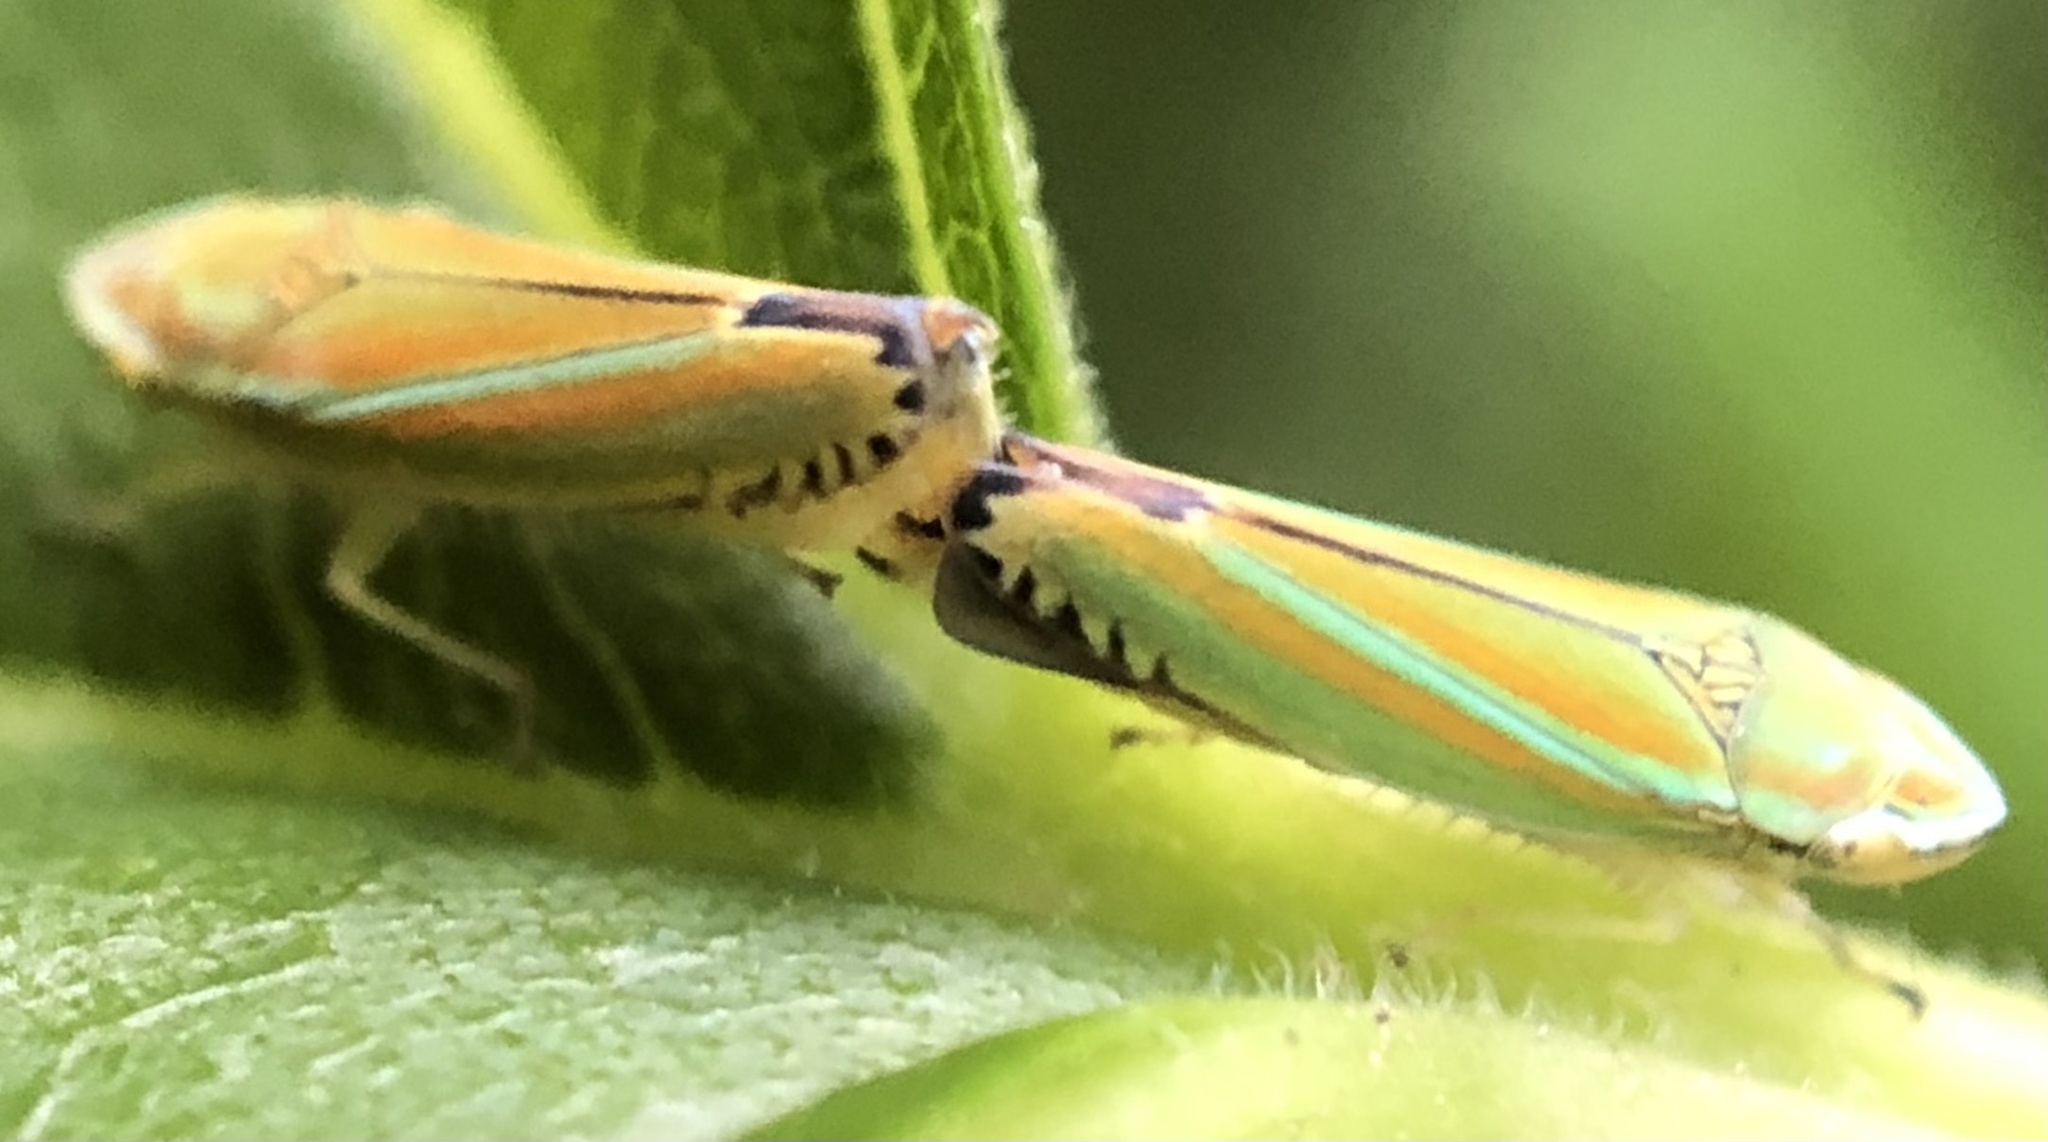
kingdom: Animalia
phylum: Arthropoda
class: Insecta
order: Hemiptera
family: Cicadellidae
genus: Graphocephala
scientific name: Graphocephala versuta
